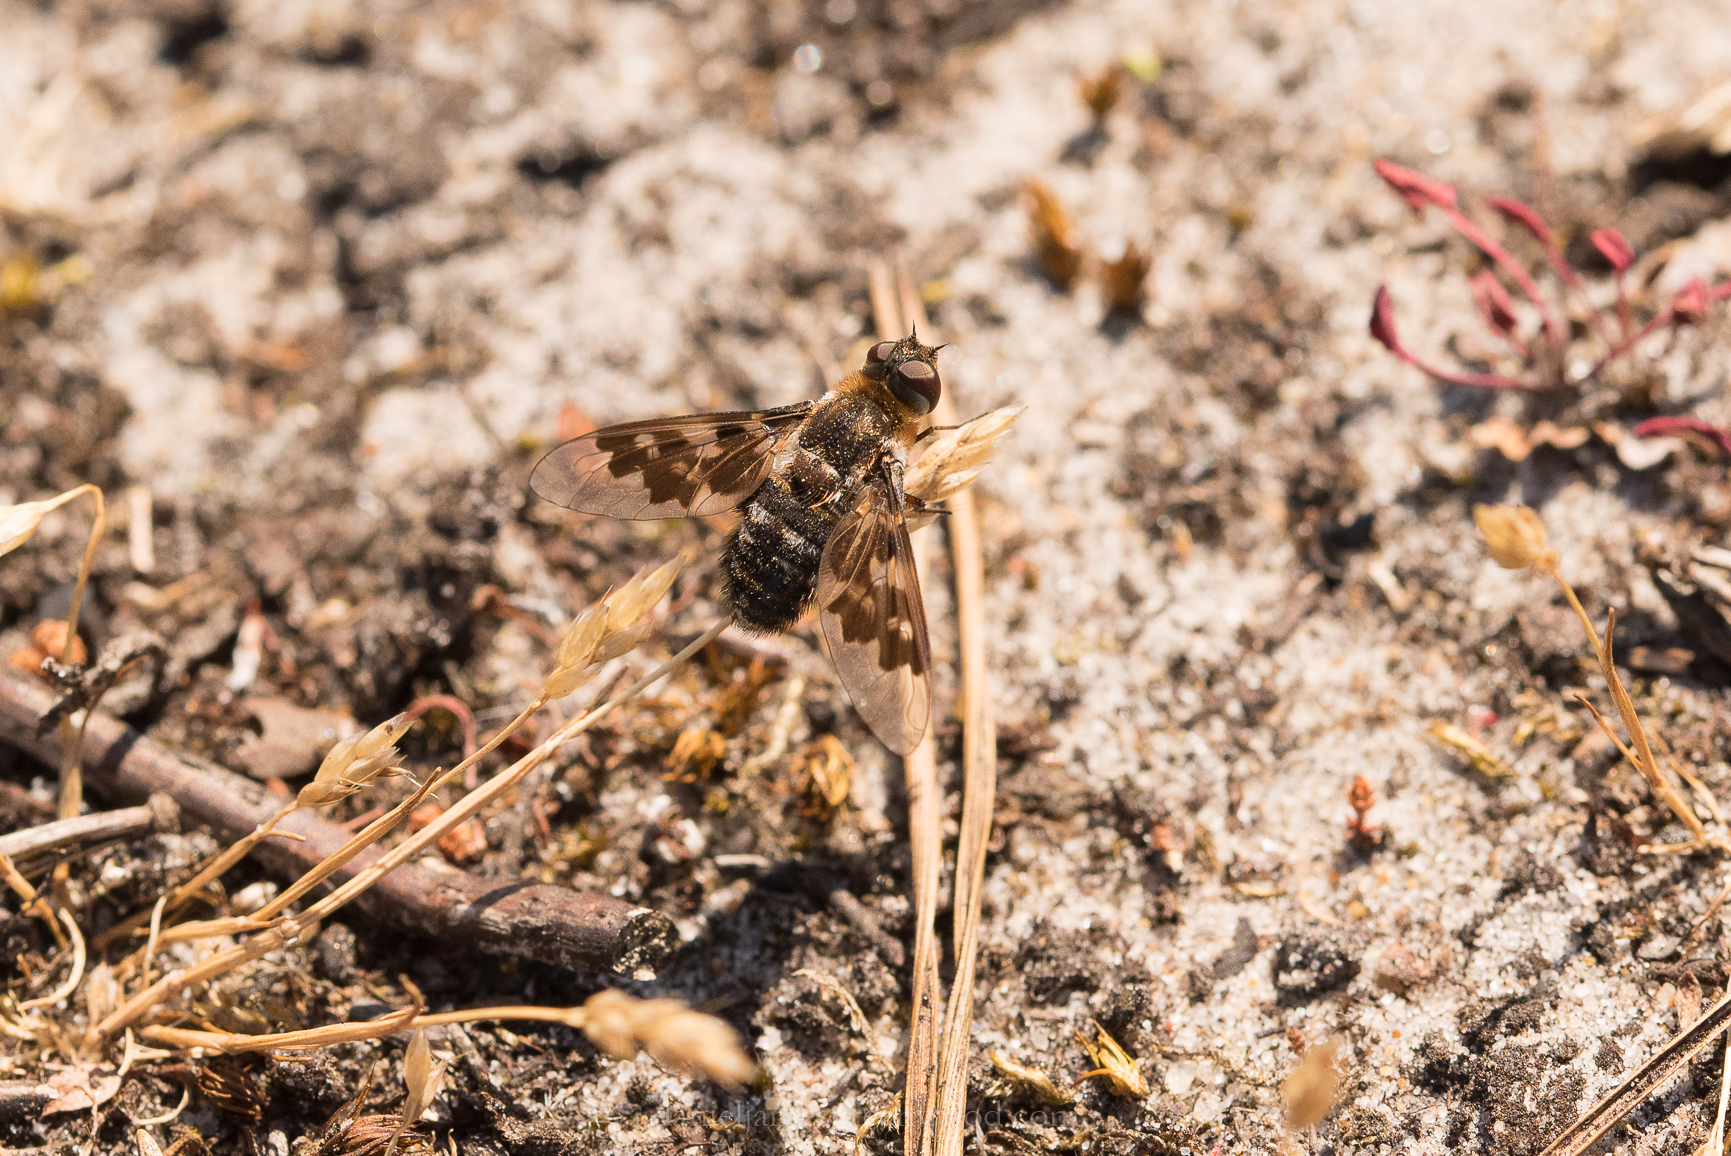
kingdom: Animalia
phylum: Arthropoda
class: Insecta
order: Diptera
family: Bombyliidae
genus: Thyridanthrax
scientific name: Thyridanthrax fenestratus
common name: Mottled bee-fly
